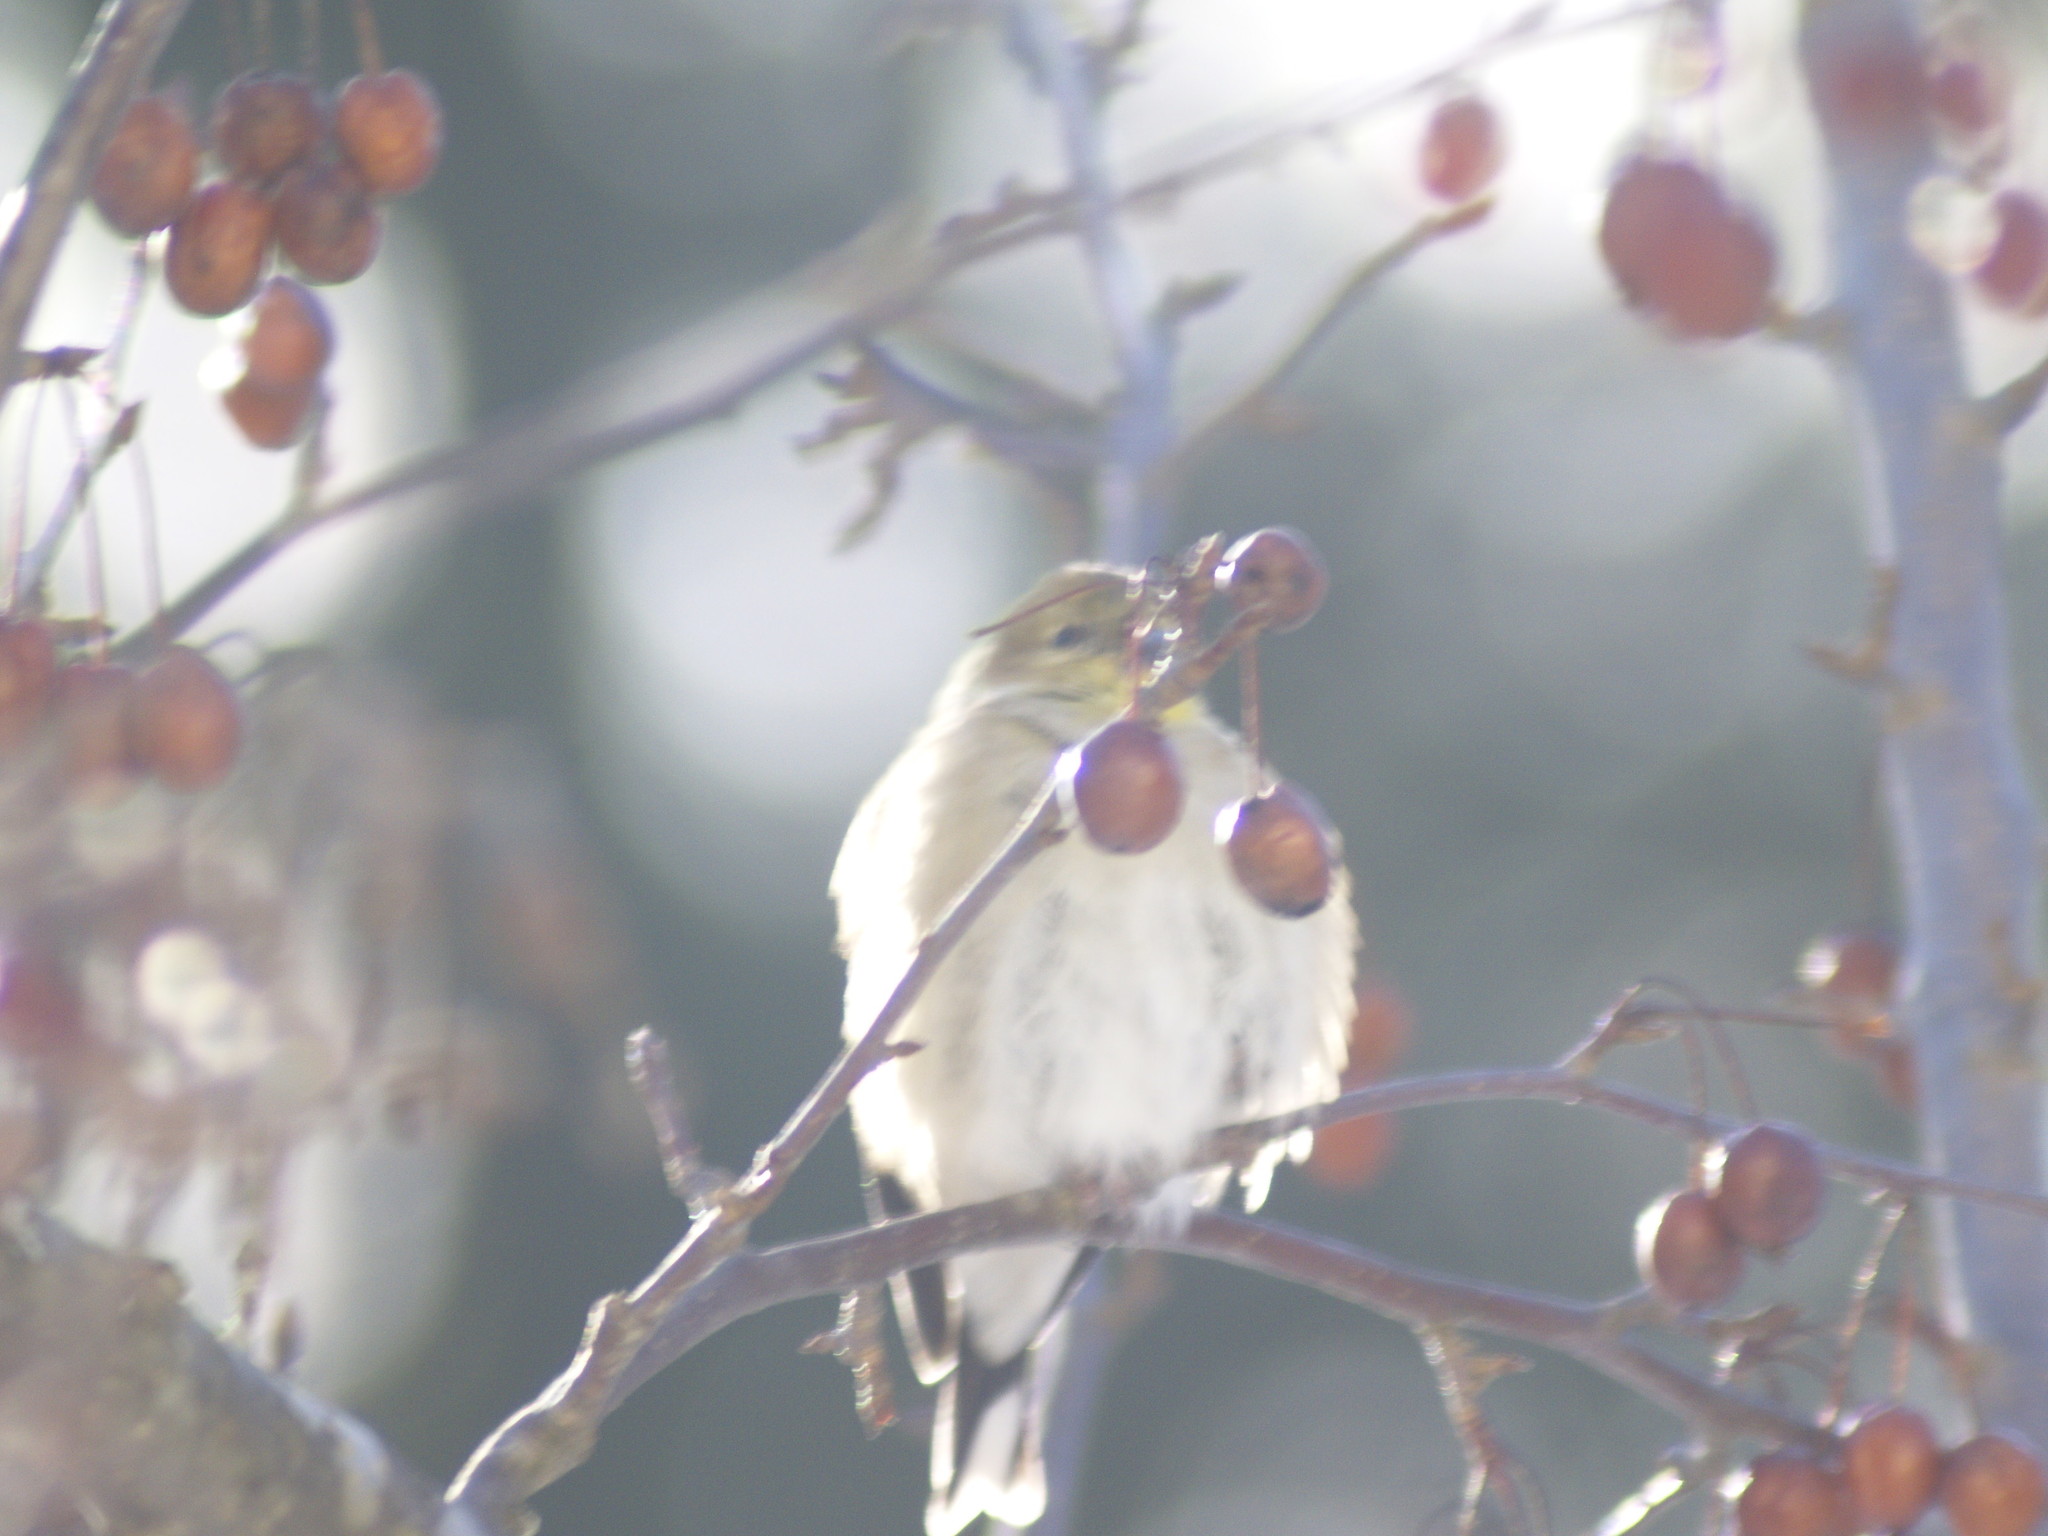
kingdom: Animalia
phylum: Chordata
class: Aves
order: Passeriformes
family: Fringillidae
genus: Spinus
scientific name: Spinus tristis
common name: American goldfinch
